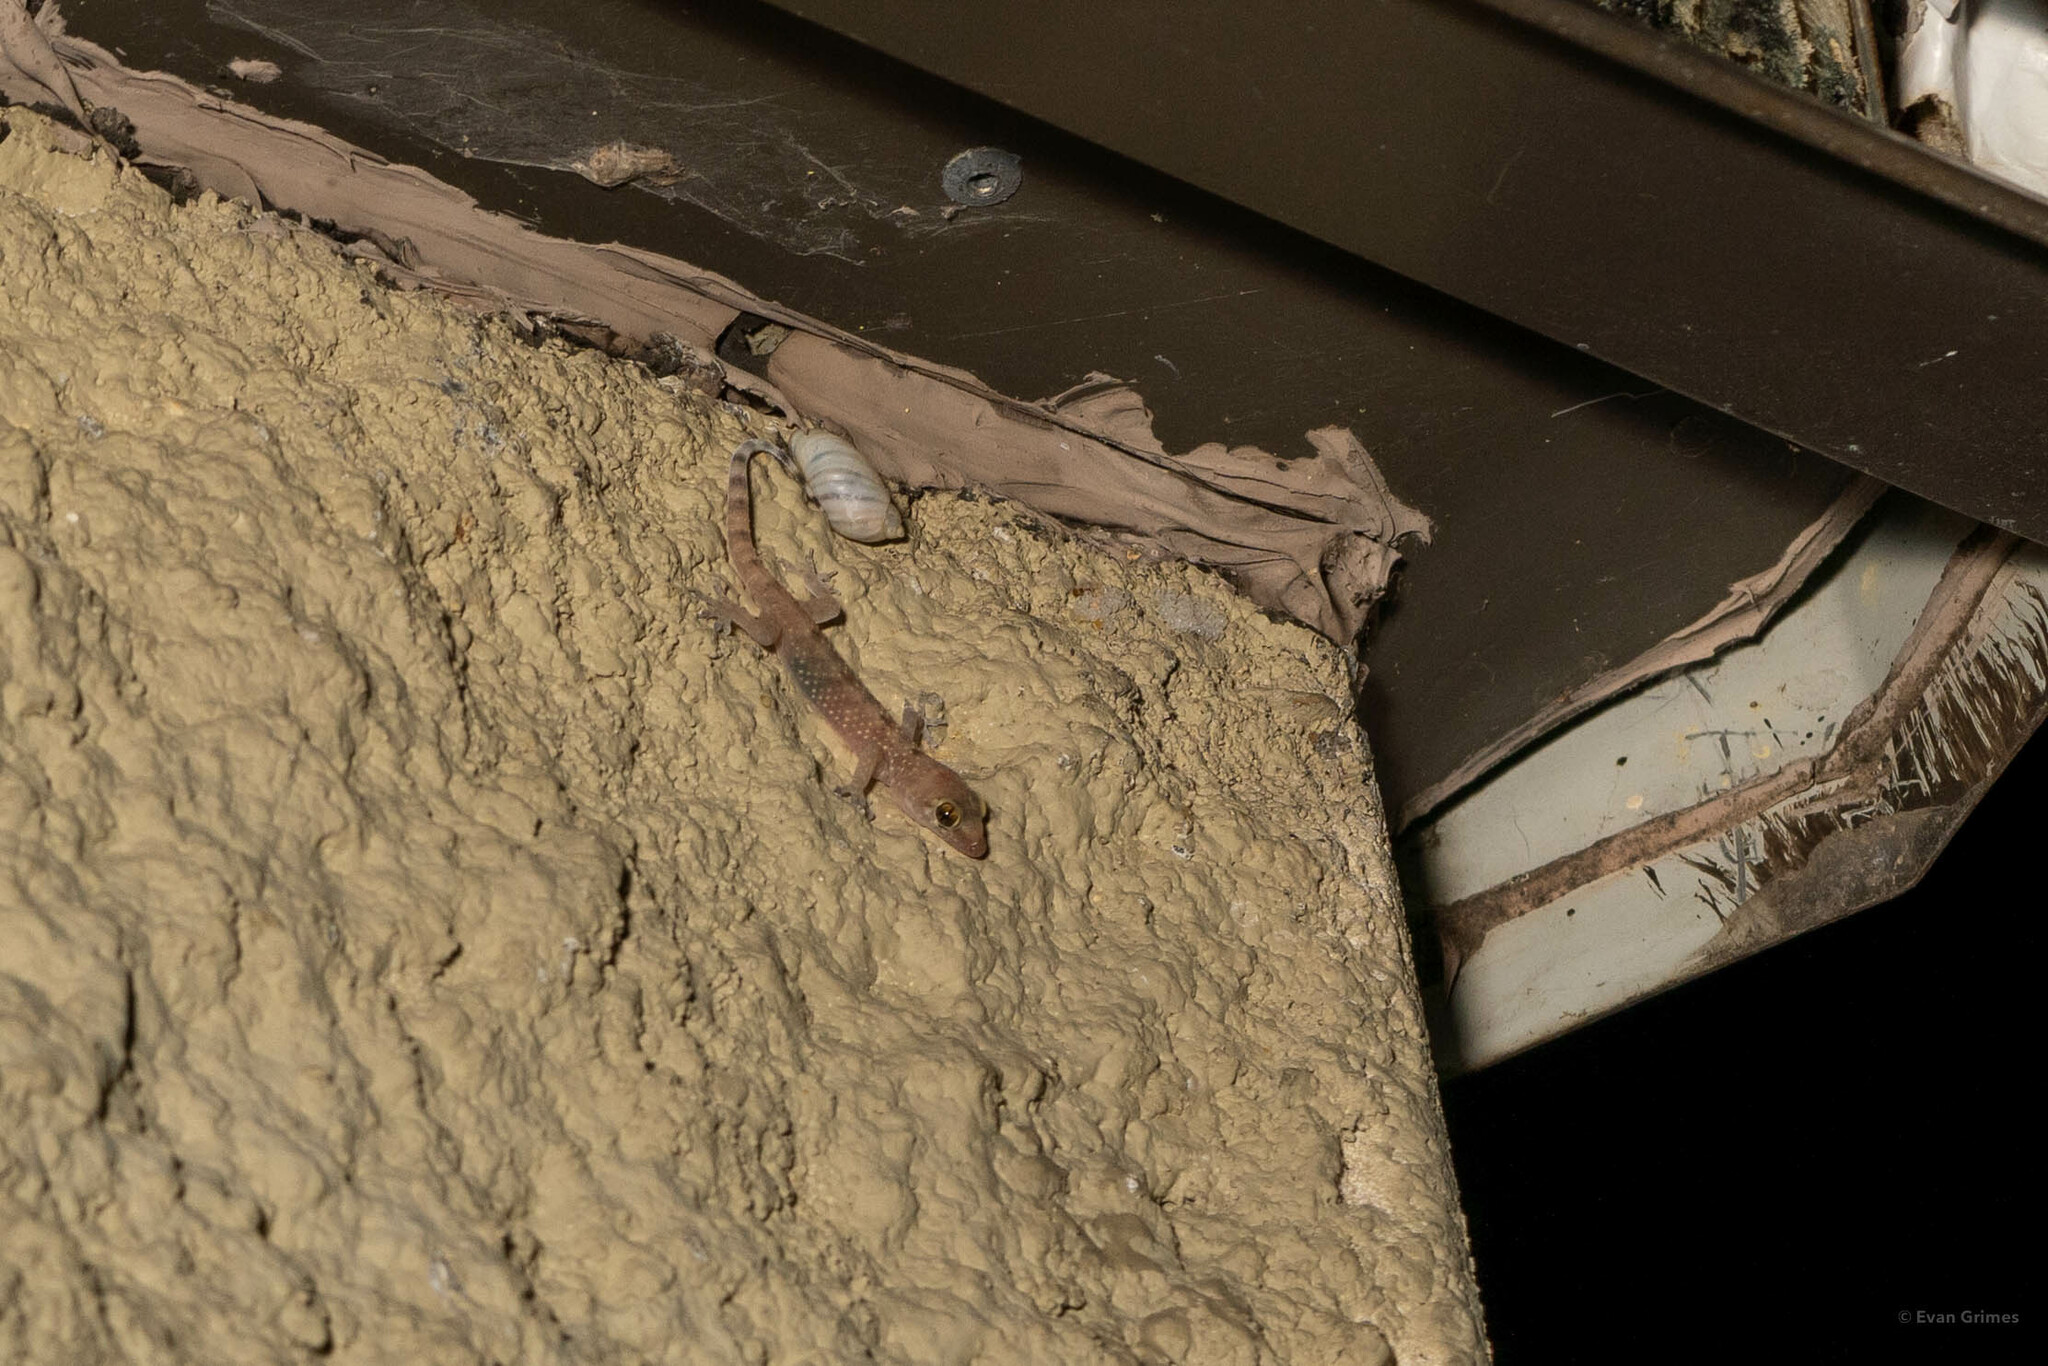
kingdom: Animalia
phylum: Chordata
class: Squamata
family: Gekkonidae
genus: Hemidactylus
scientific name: Hemidactylus turcicus
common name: Turkish gecko
